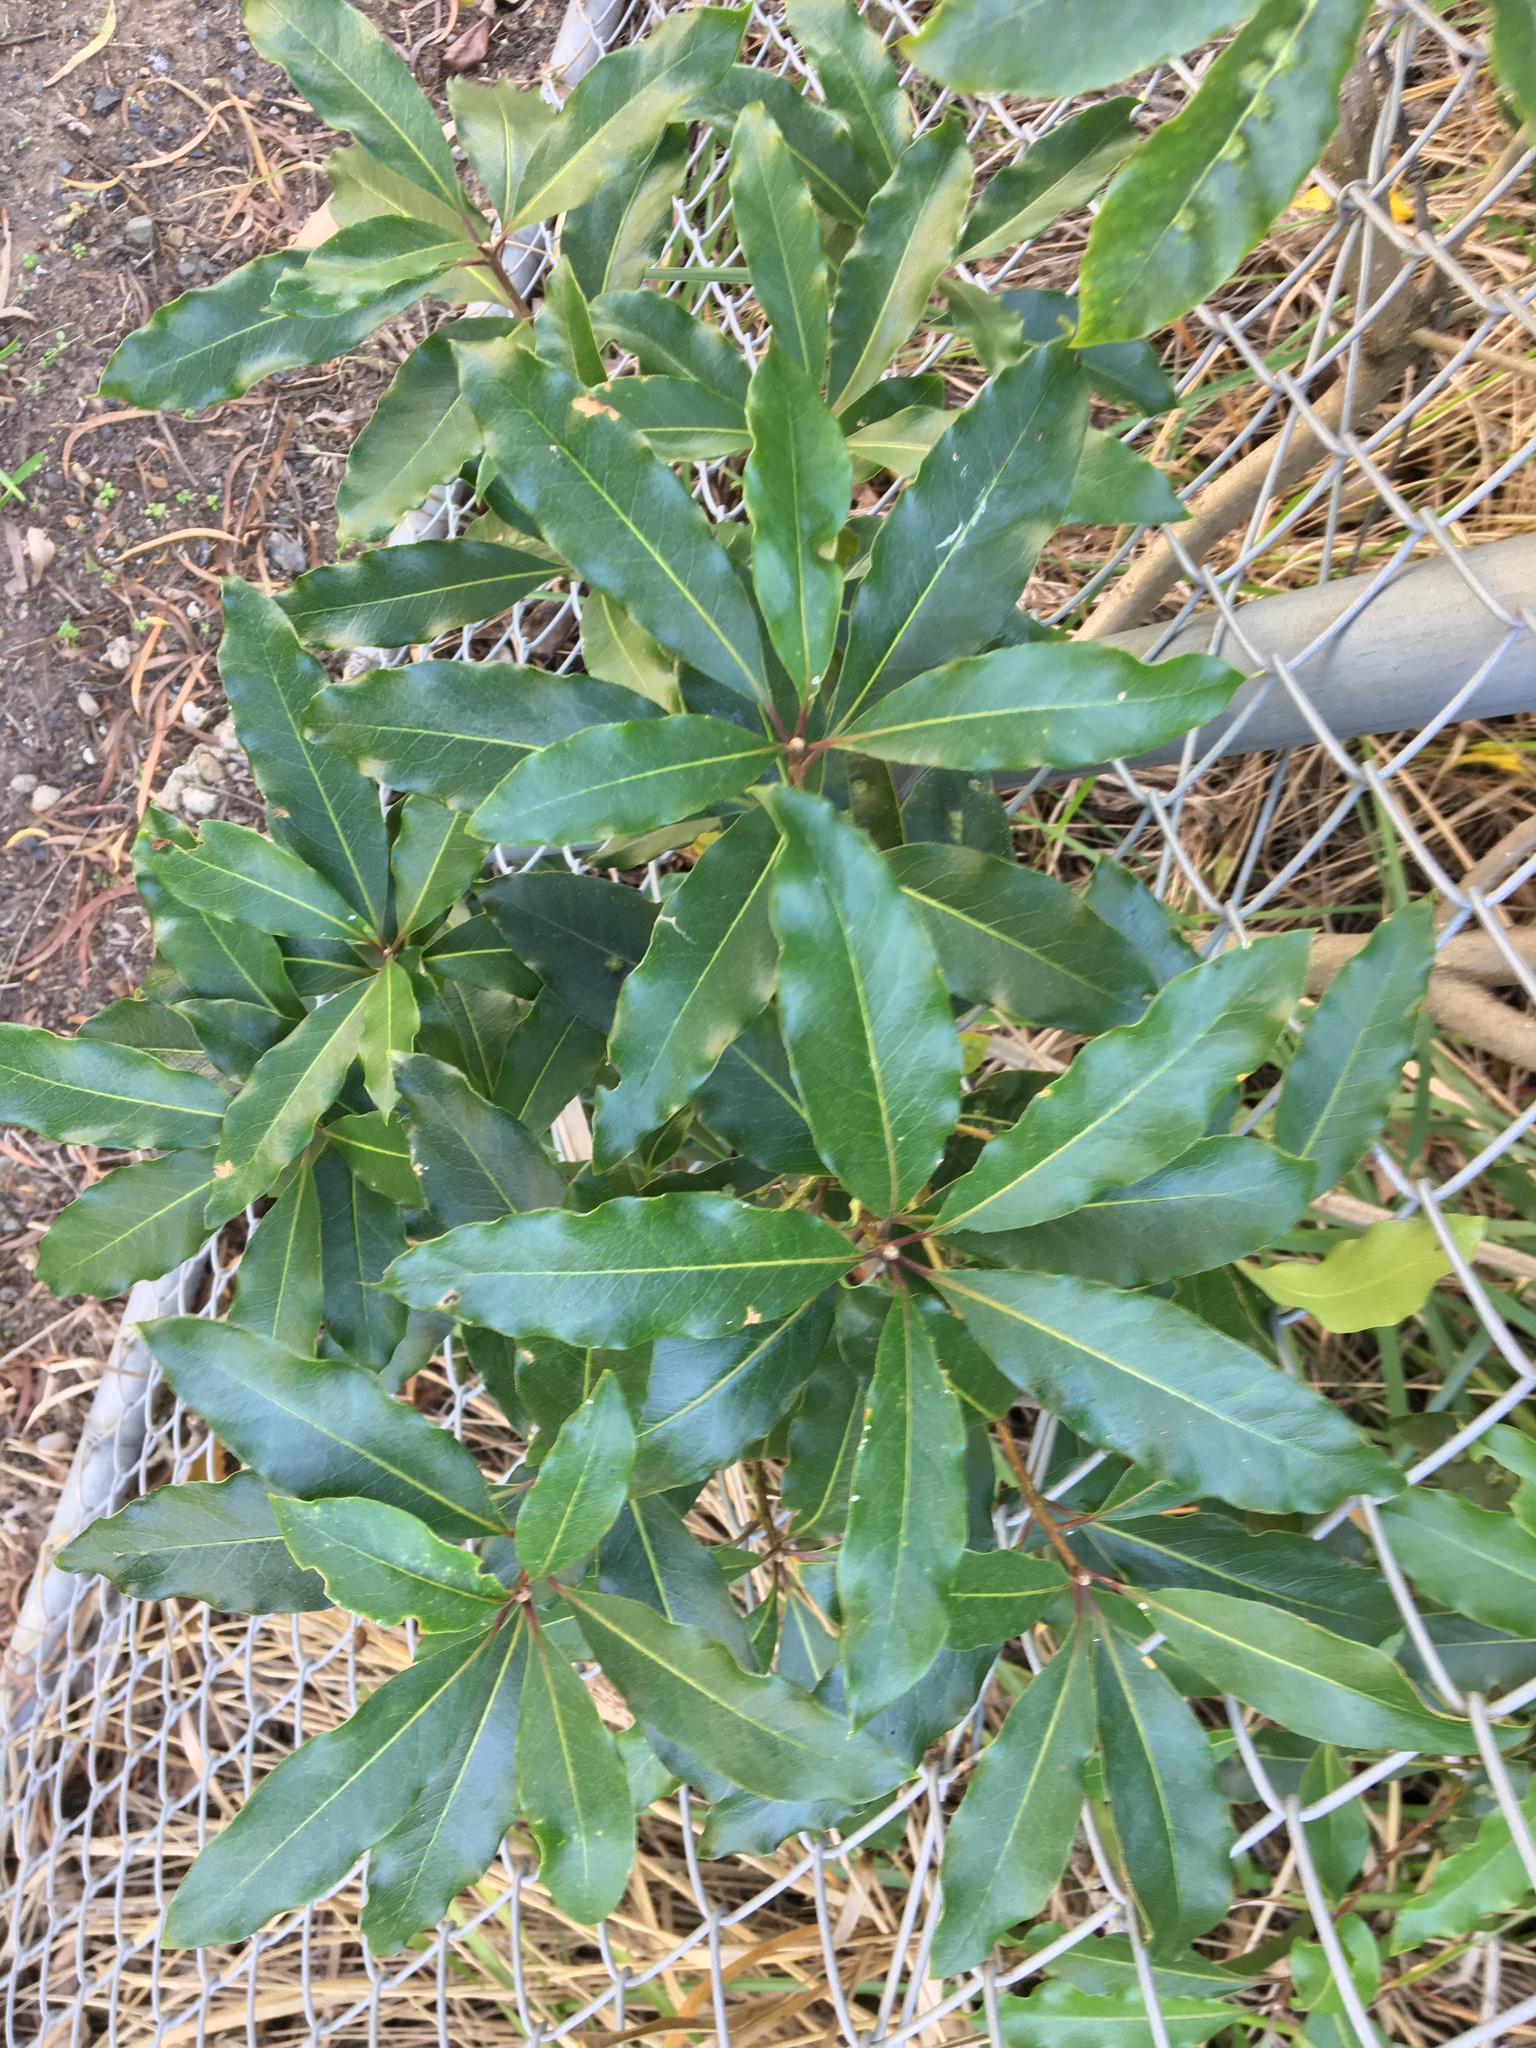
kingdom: Plantae
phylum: Tracheophyta
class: Magnoliopsida
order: Apiales
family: Pittosporaceae
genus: Pittosporum
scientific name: Pittosporum undulatum
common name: Australian cheesewood
